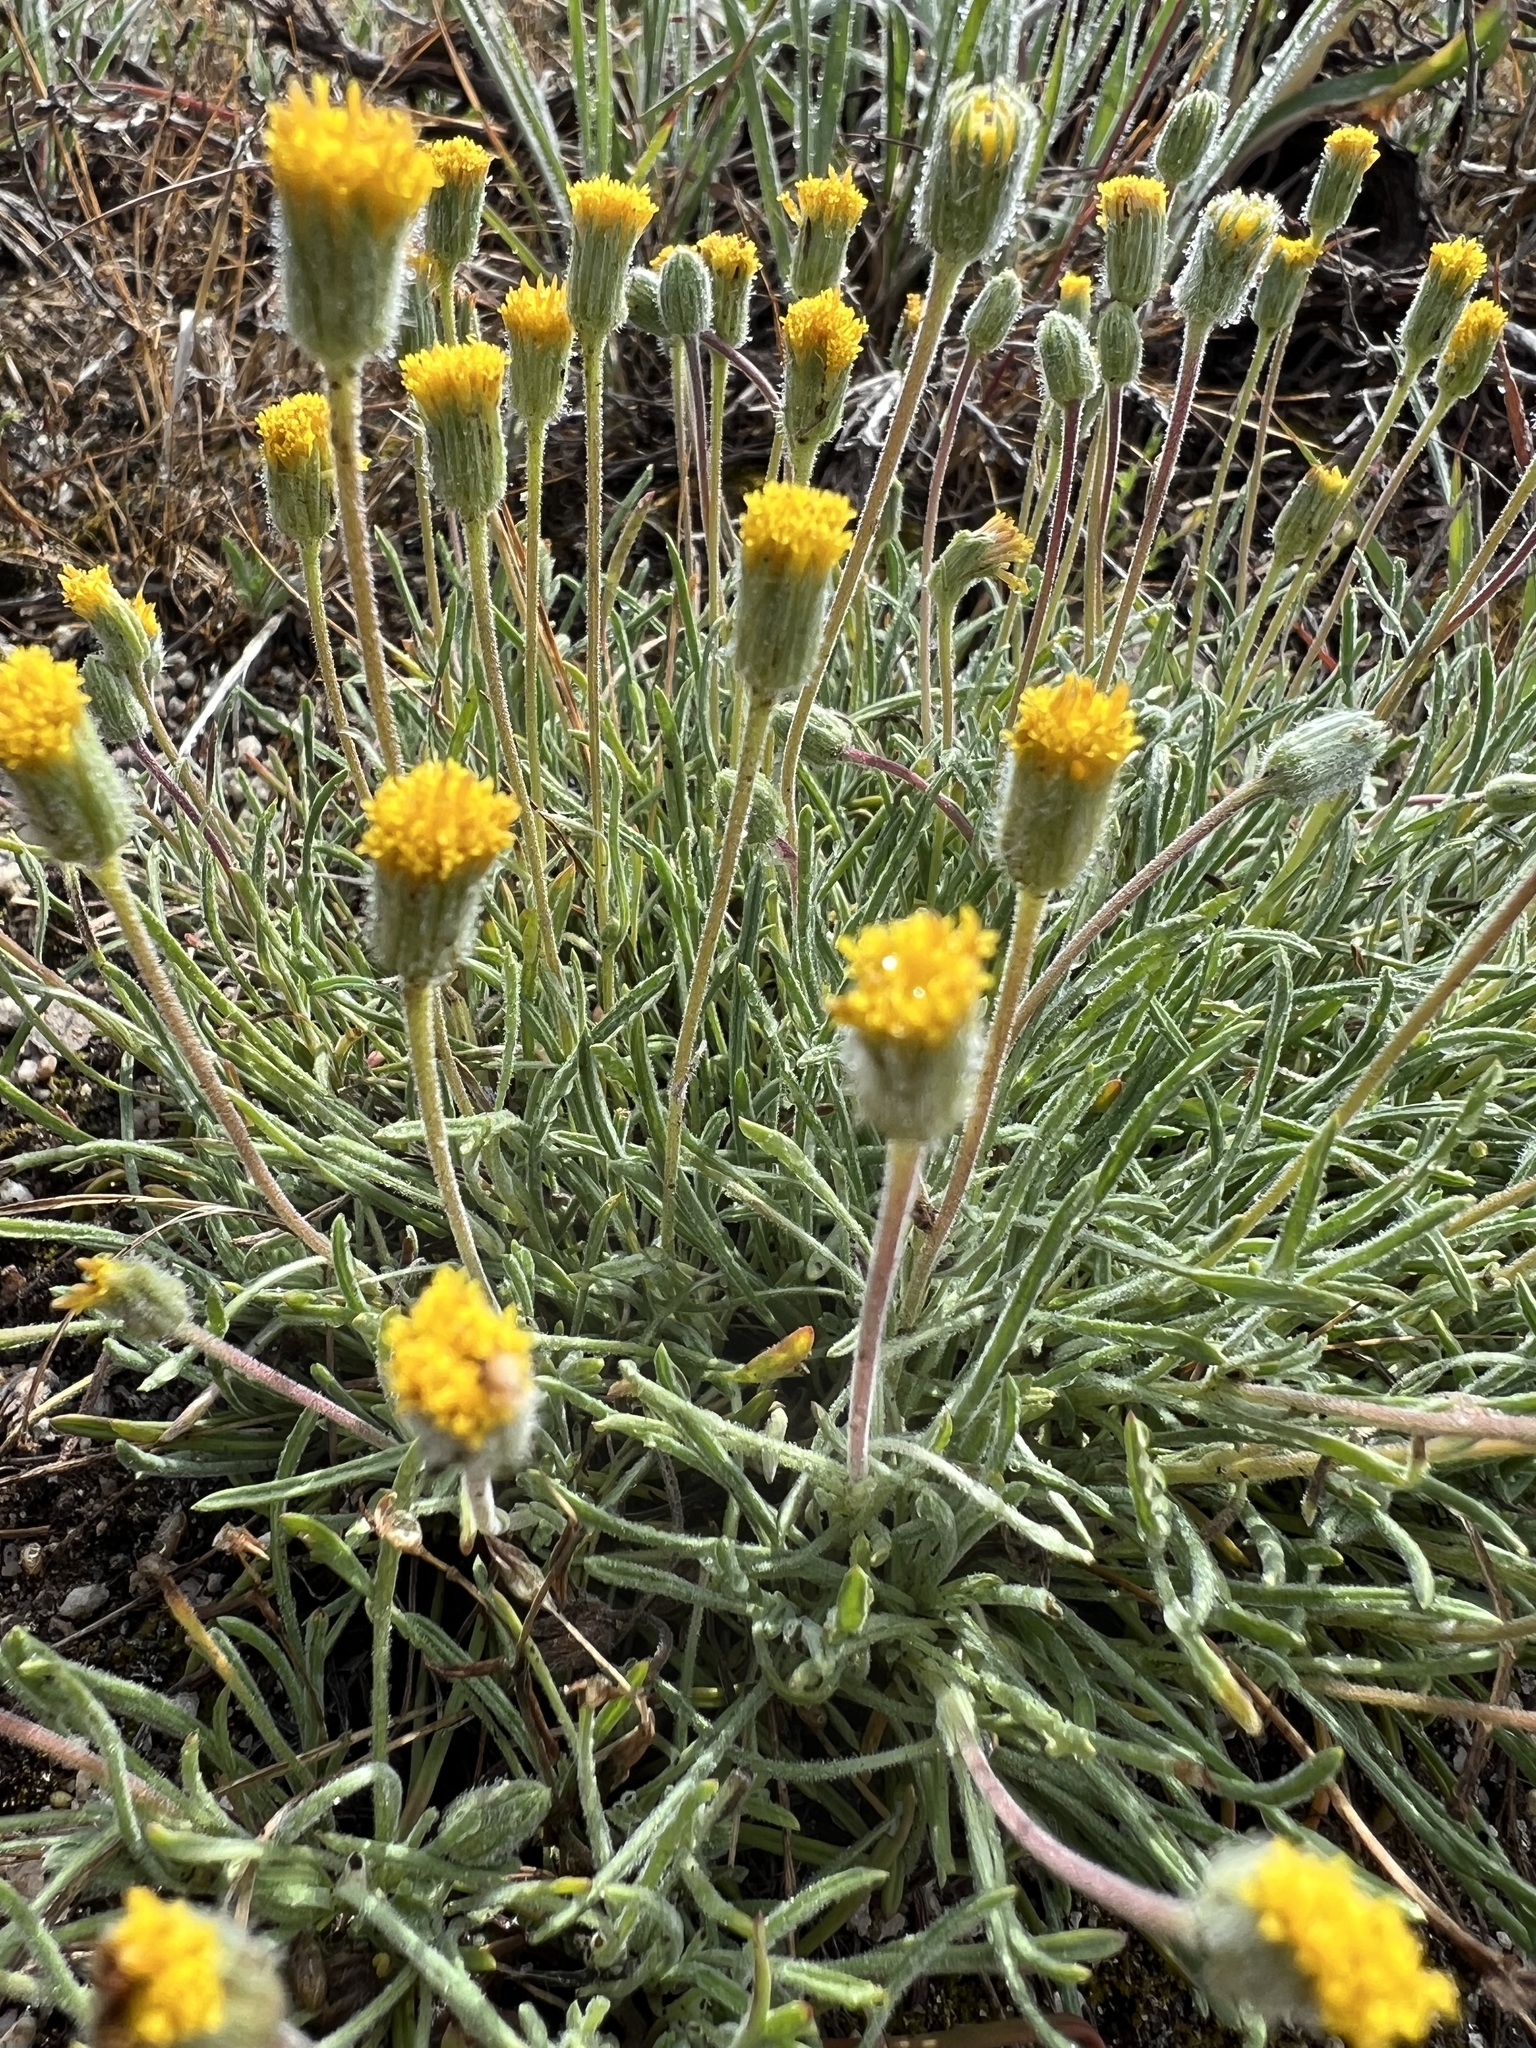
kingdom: Plantae
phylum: Tracheophyta
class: Magnoliopsida
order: Asterales
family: Asteraceae
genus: Erigeron
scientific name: Erigeron bloomeri
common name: Bloomer's fleabane
